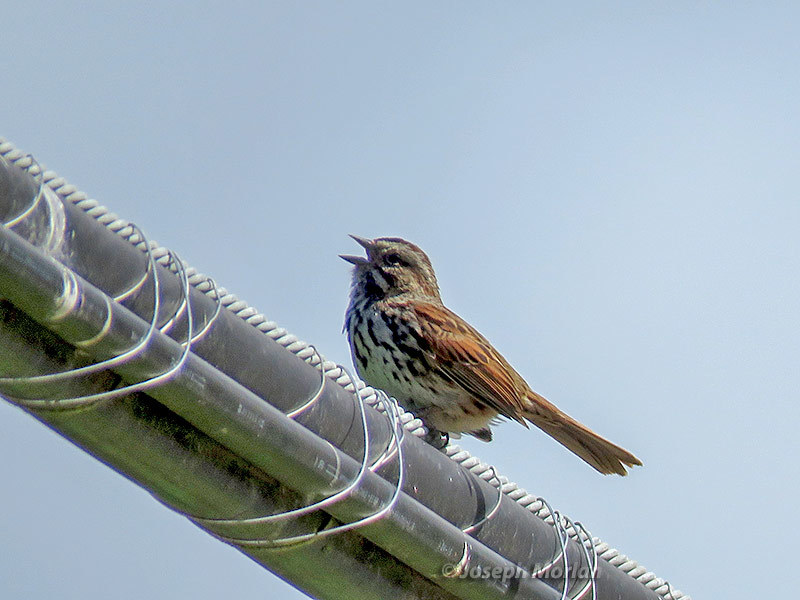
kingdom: Animalia
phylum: Chordata
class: Aves
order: Passeriformes
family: Passerellidae
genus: Melospiza
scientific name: Melospiza melodia
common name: Song sparrow
